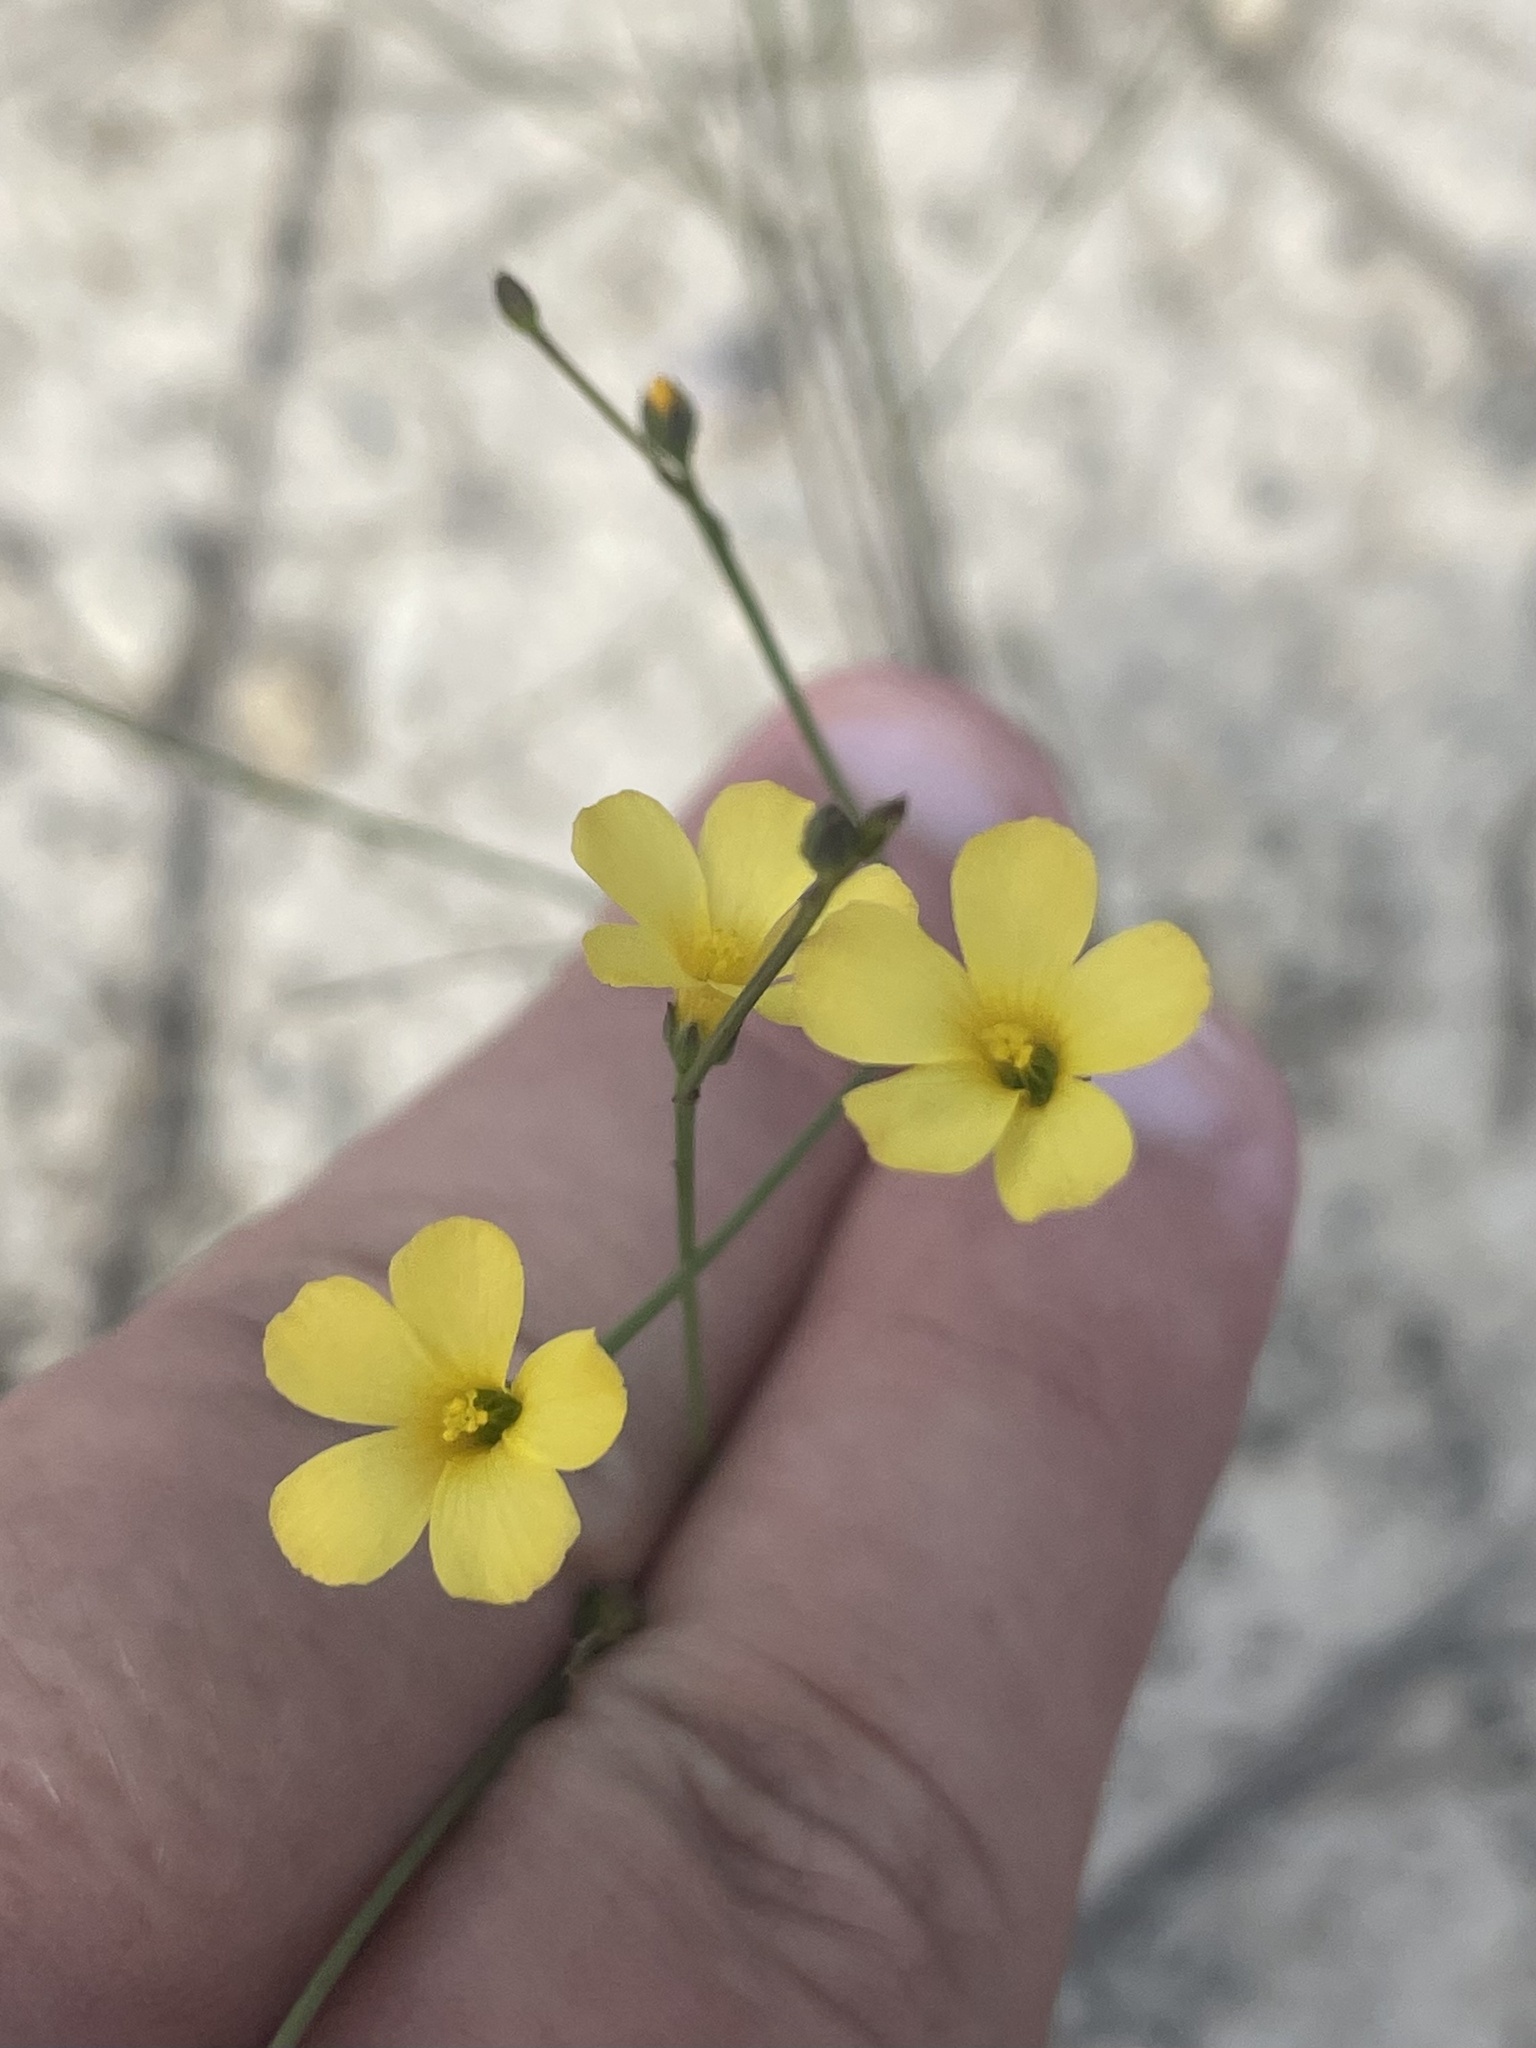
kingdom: Plantae
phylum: Tracheophyta
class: Magnoliopsida
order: Malpighiales
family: Linaceae
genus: Linum
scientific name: Linum rupestre
